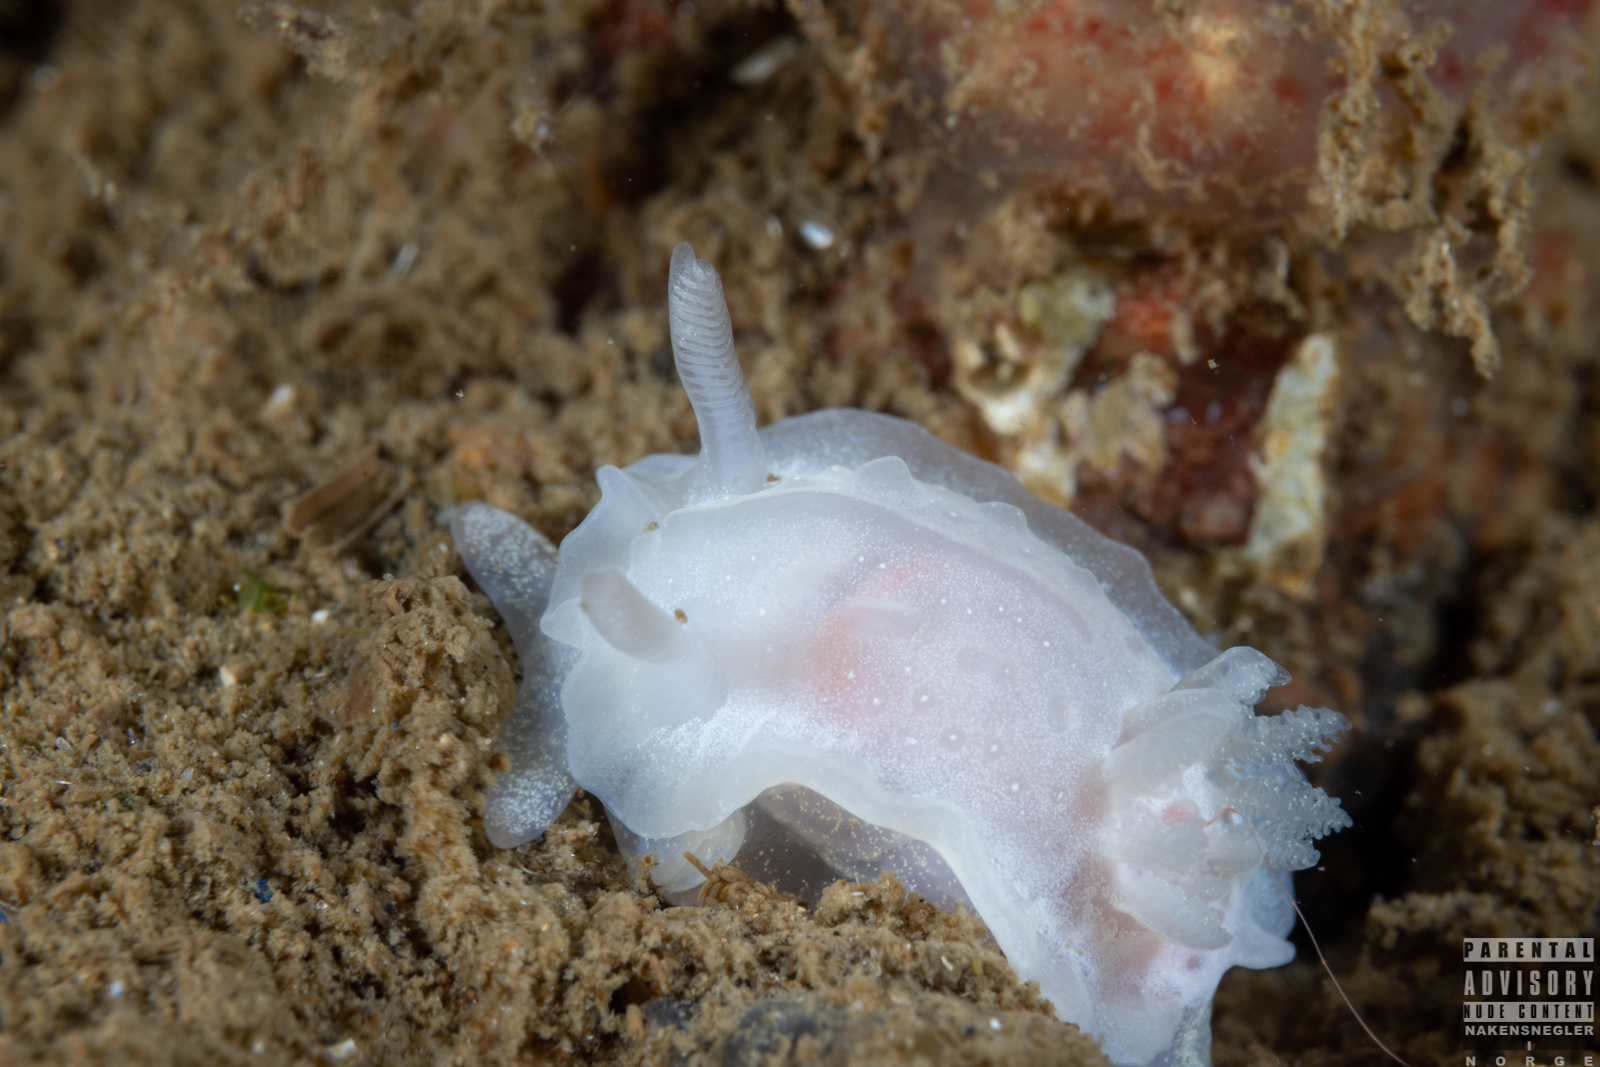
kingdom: Animalia
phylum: Mollusca
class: Gastropoda
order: Nudibranchia
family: Goniodorididae
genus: Okenia
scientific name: Okenia
